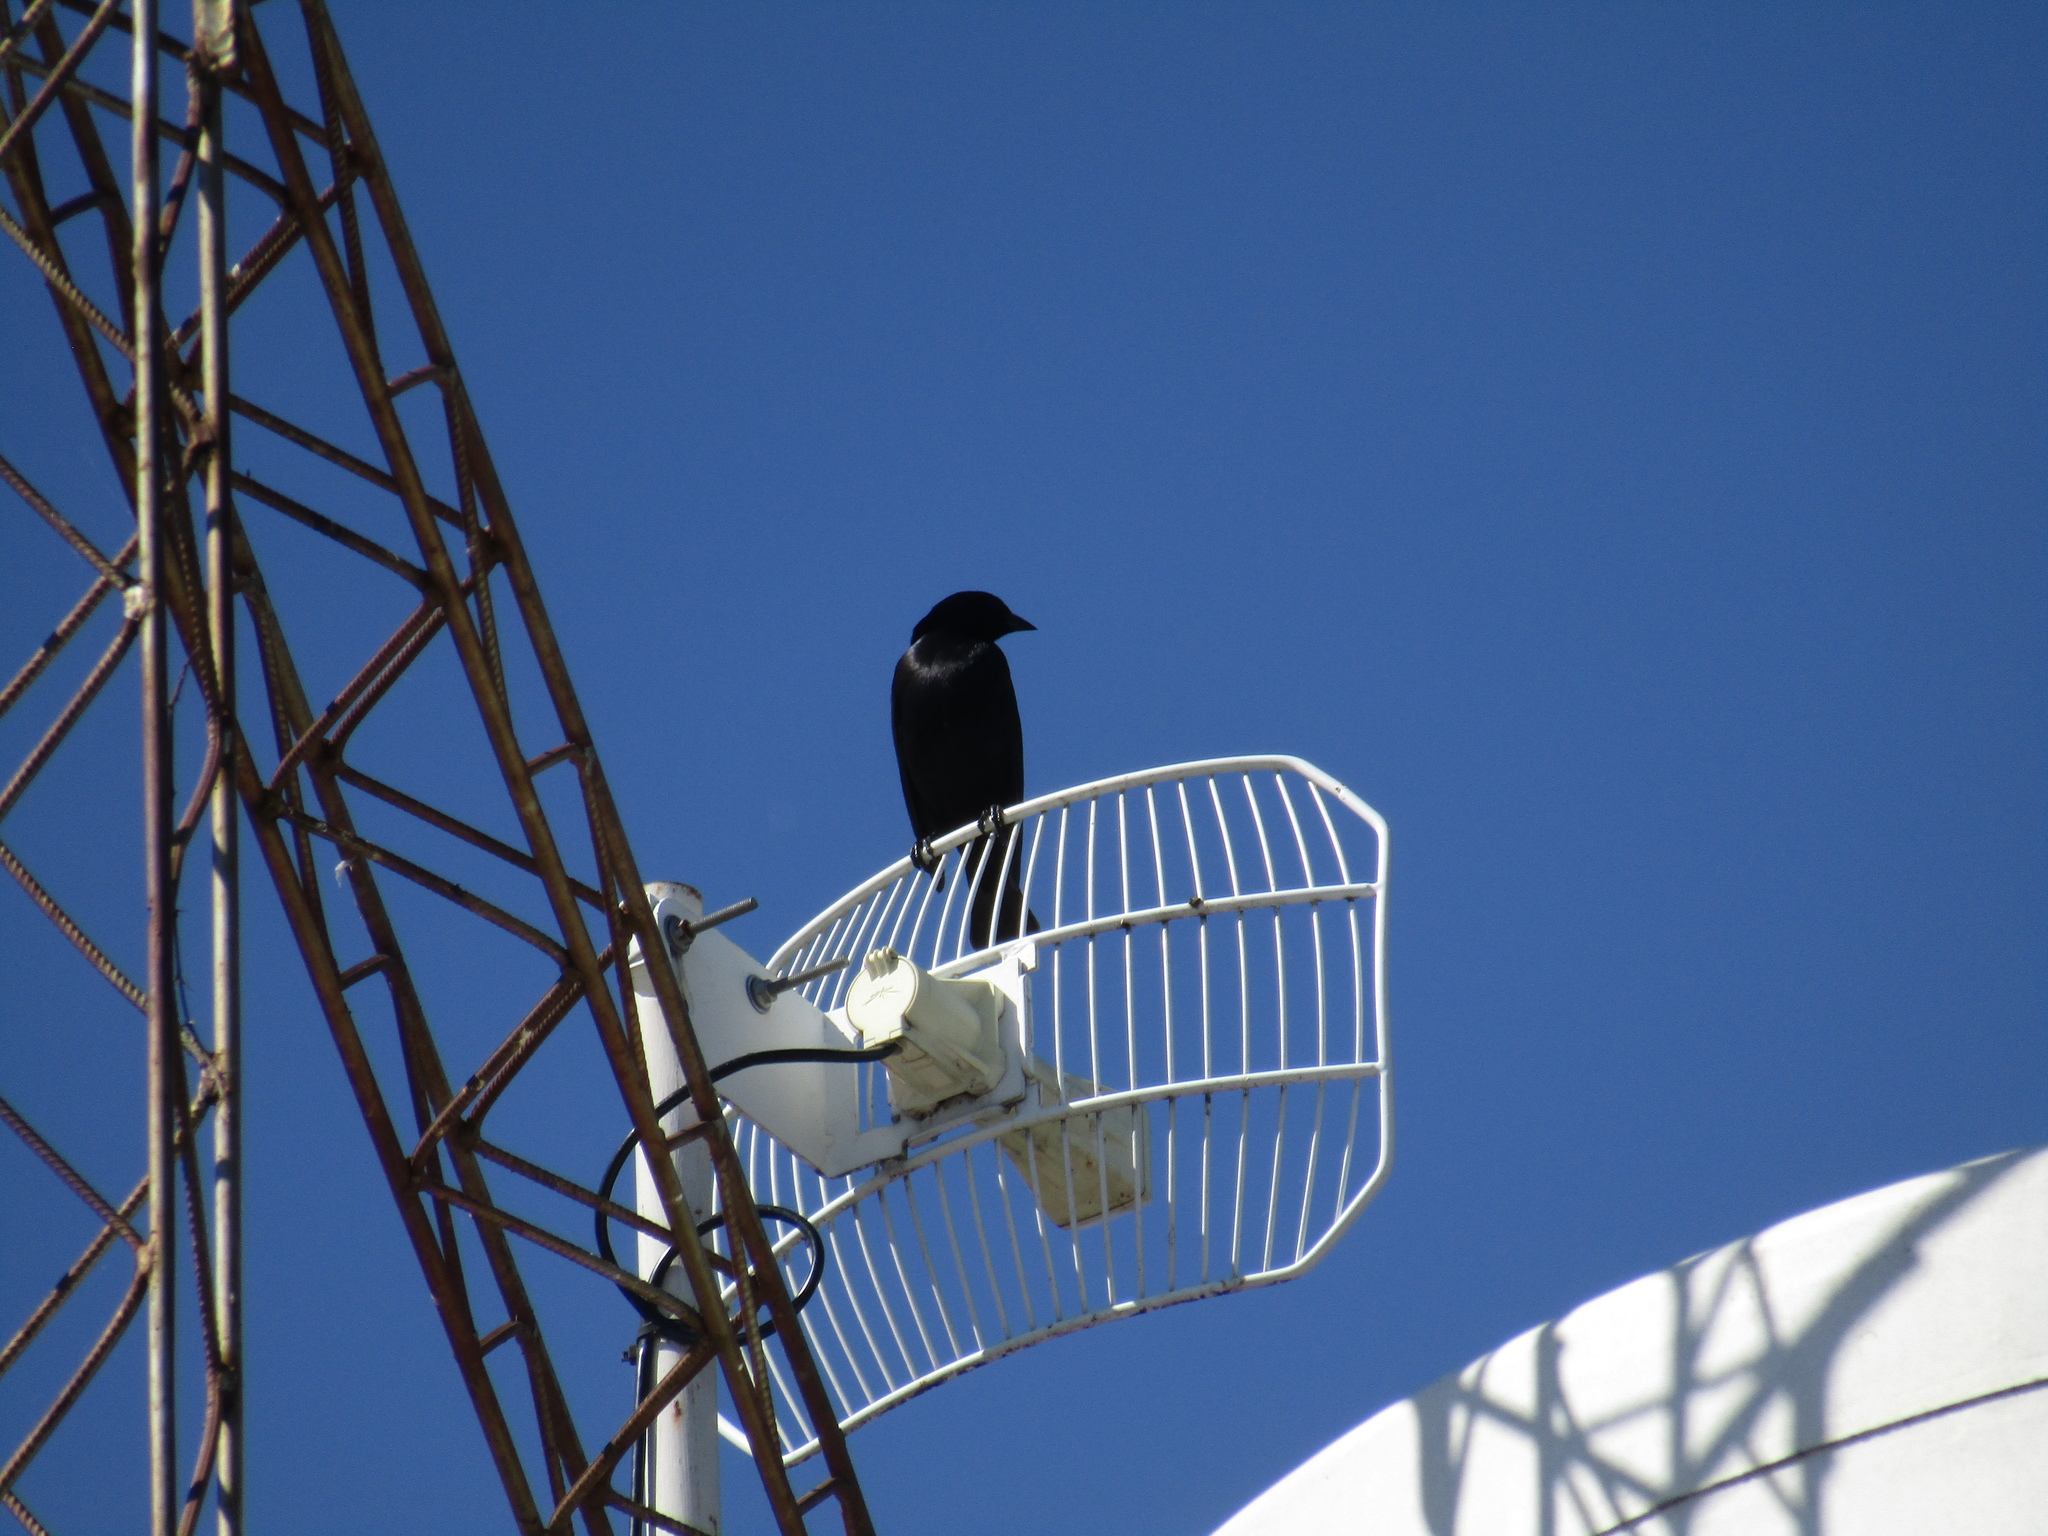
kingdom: Animalia
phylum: Chordata
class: Aves
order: Passeriformes
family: Icteridae
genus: Molothrus
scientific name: Molothrus rufoaxillaris
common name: Screaming cowbird
